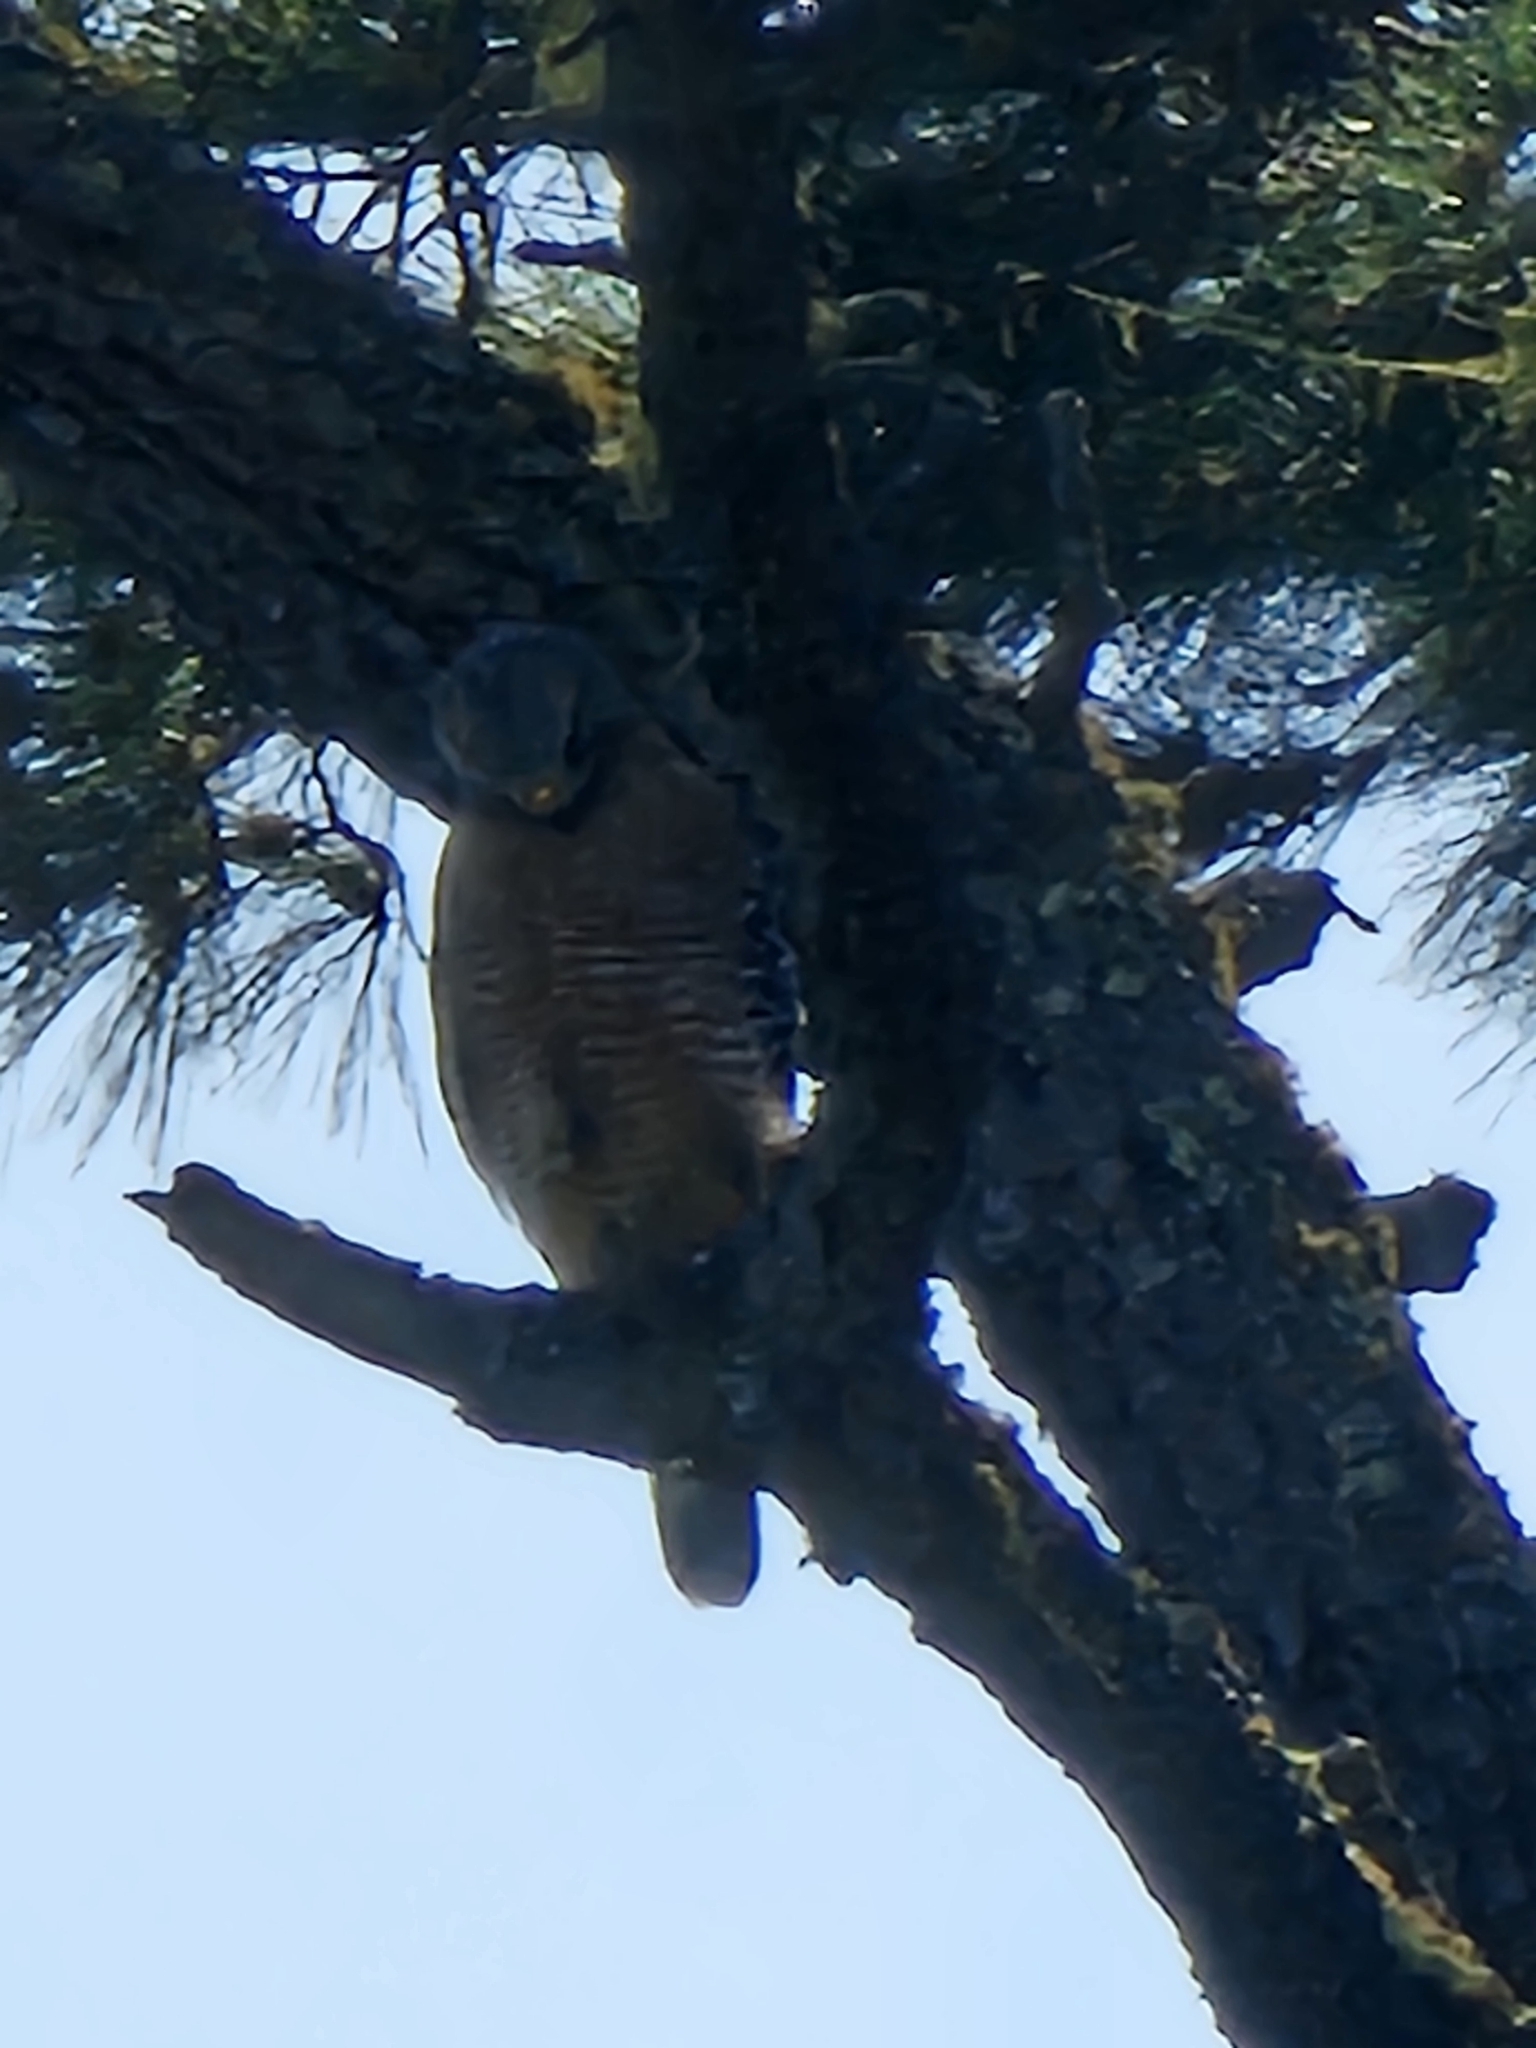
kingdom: Animalia
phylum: Chordata
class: Aves
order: Accipitriformes
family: Accipitridae
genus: Buteo
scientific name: Buteo lineatus
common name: Red-shouldered hawk
